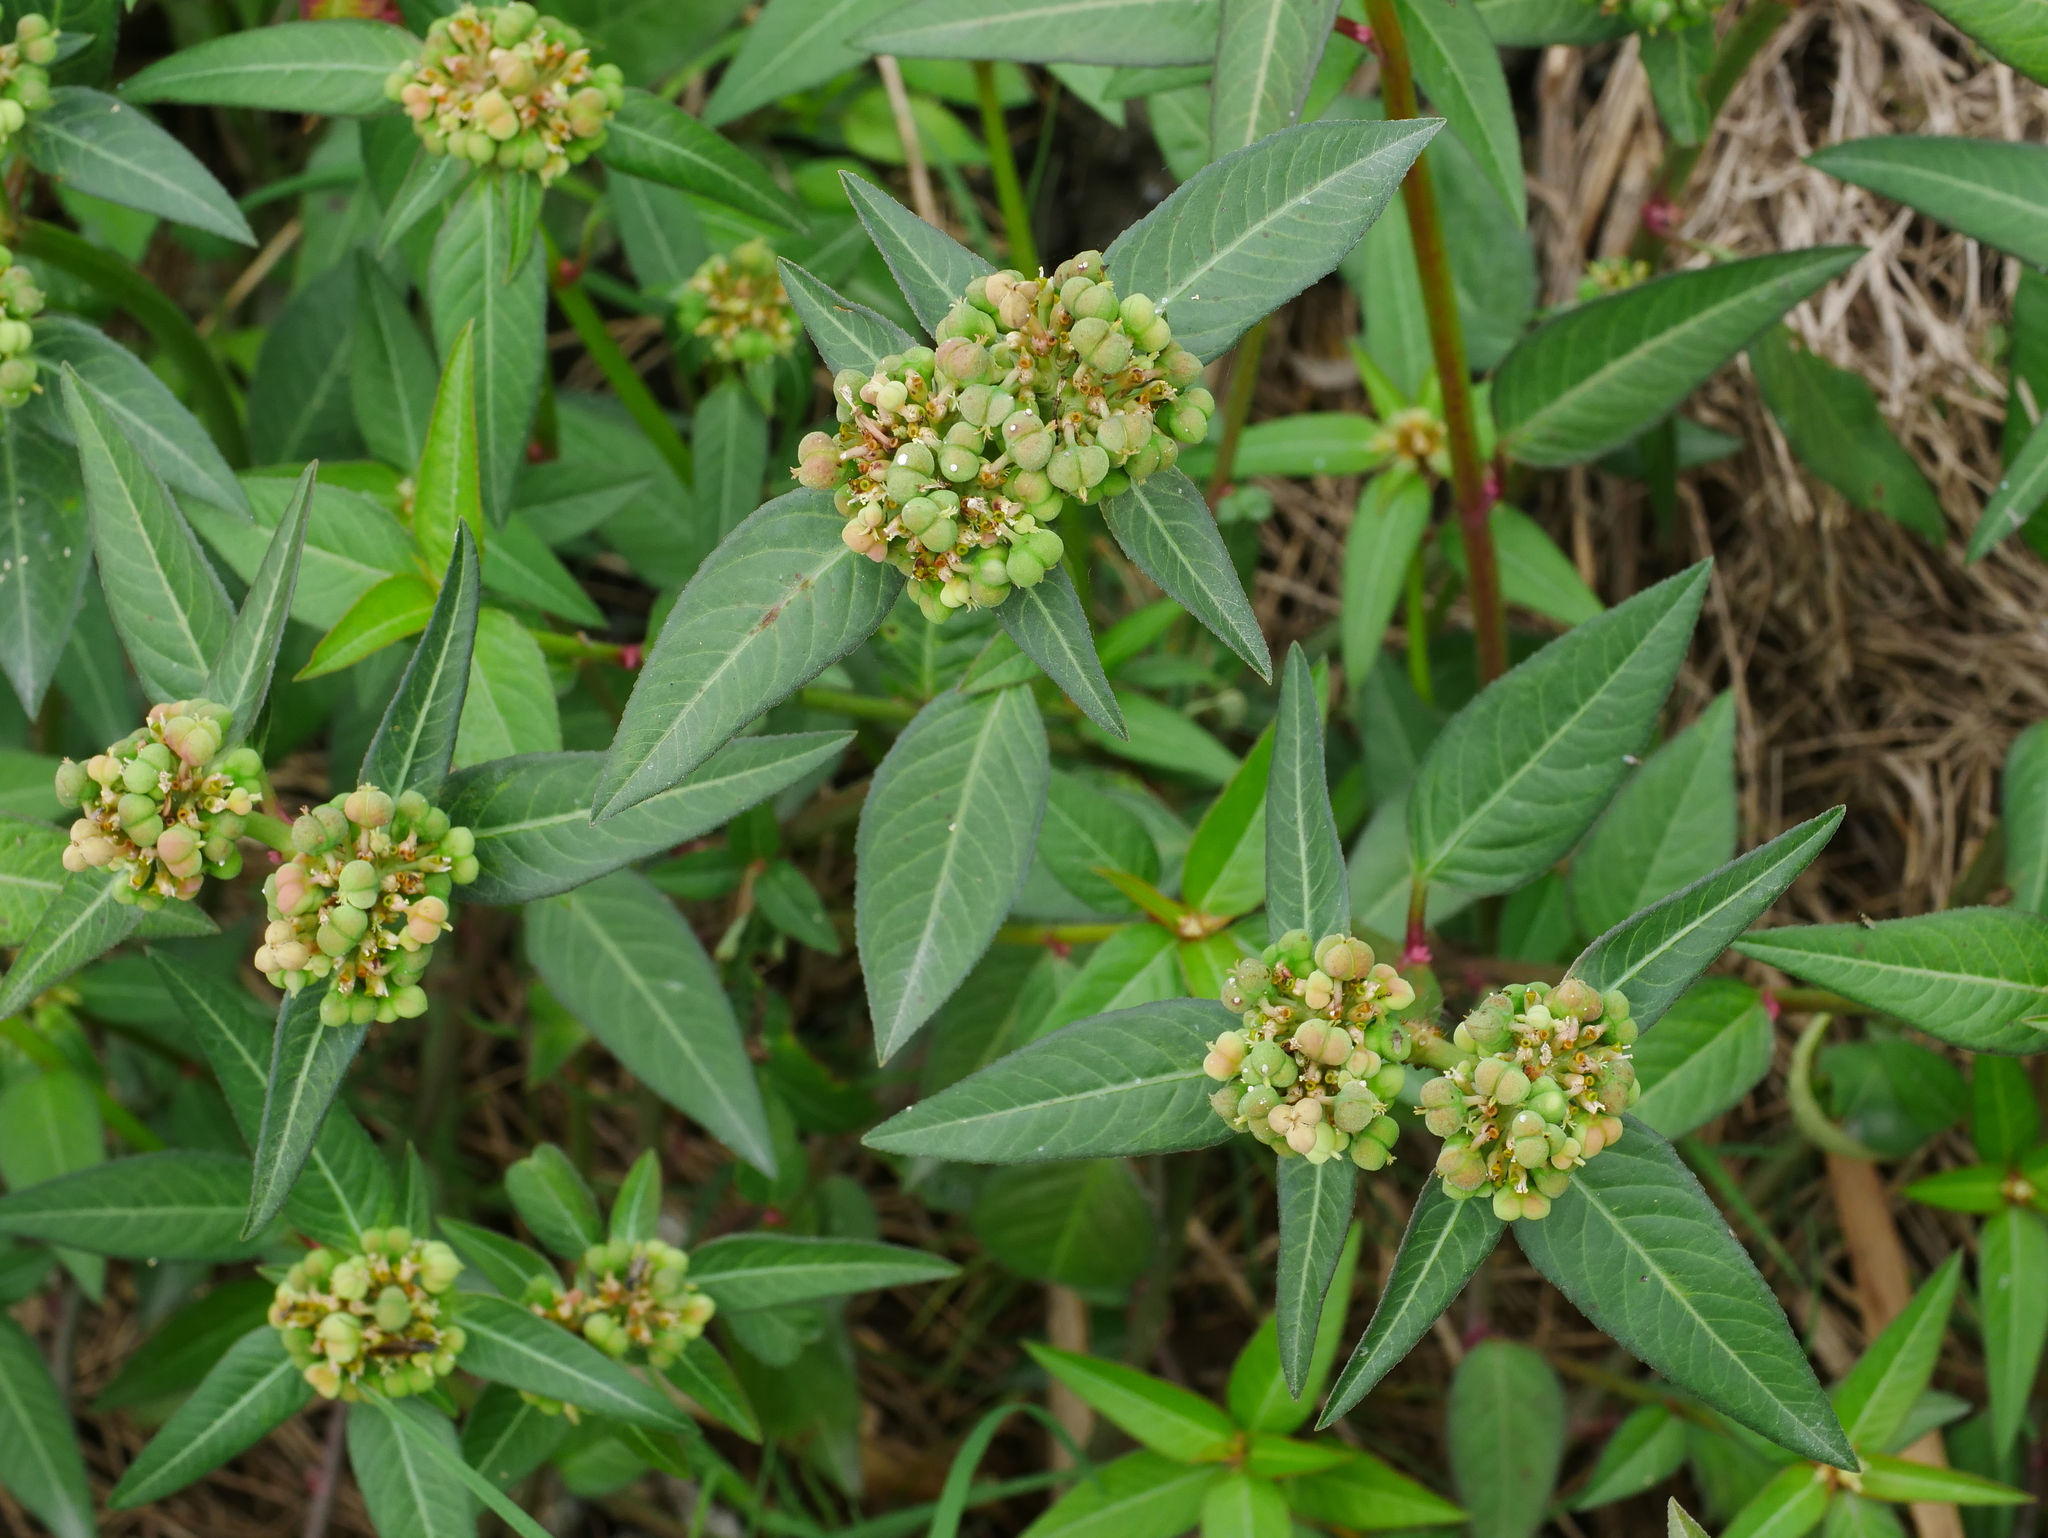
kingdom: Plantae
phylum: Tracheophyta
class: Magnoliopsida
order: Malpighiales
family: Euphorbiaceae
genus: Euphorbia
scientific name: Euphorbia heterophylla
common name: Mexican fireplant
